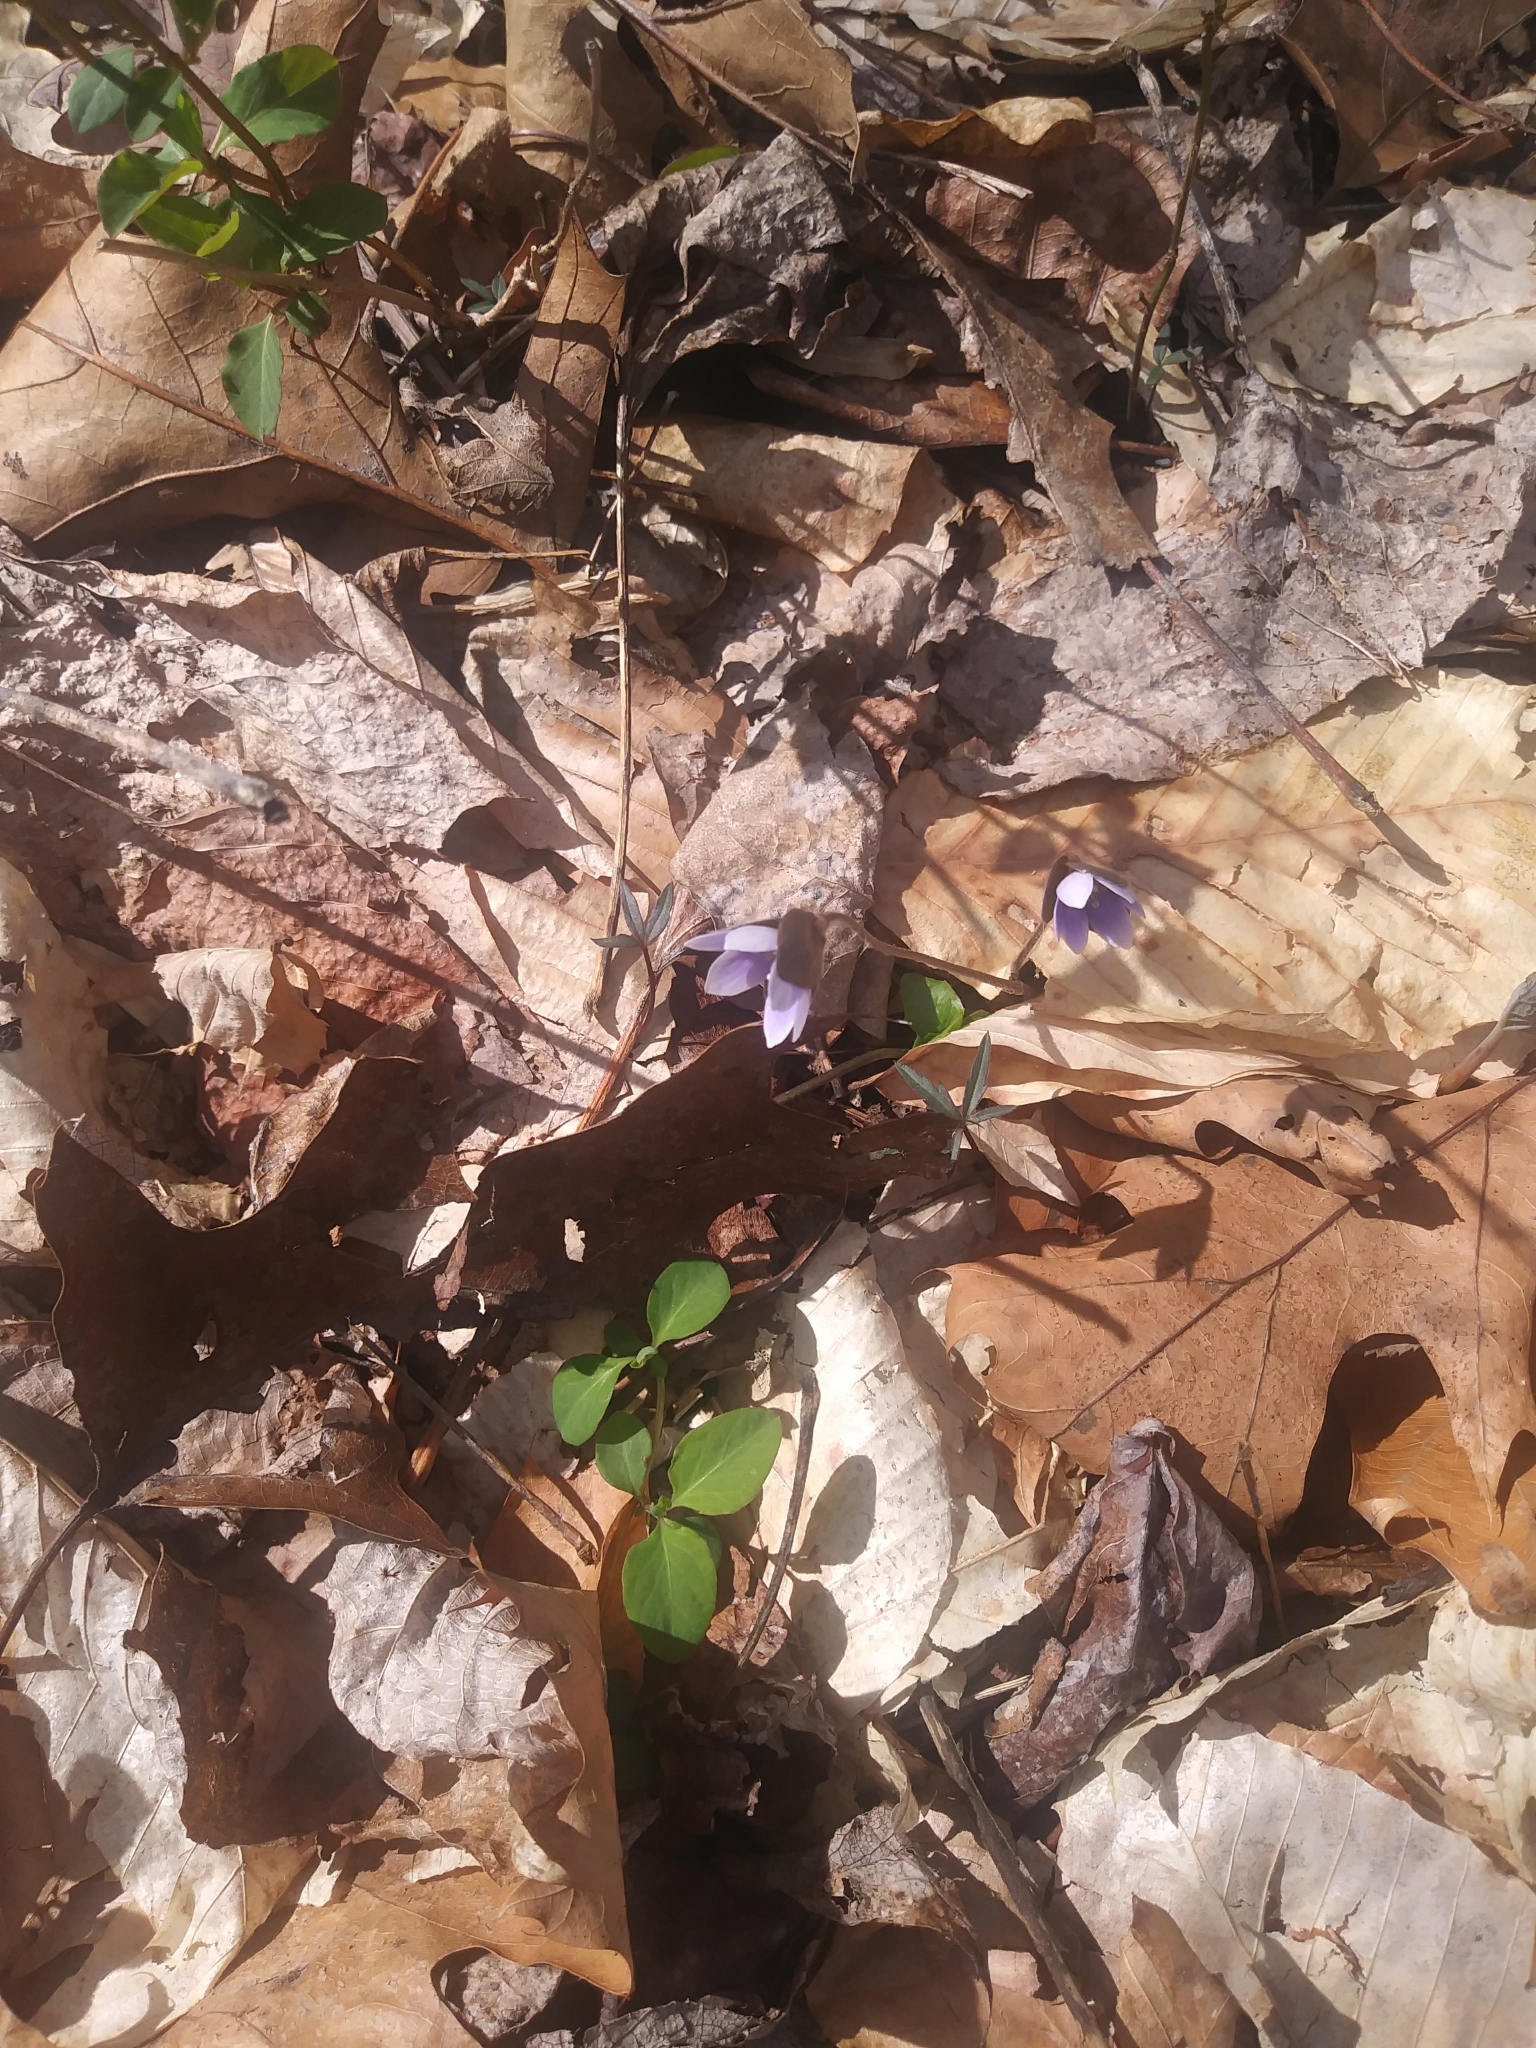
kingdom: Plantae
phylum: Tracheophyta
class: Magnoliopsida
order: Ranunculales
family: Ranunculaceae
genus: Hepatica
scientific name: Hepatica americana
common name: American hepatica
